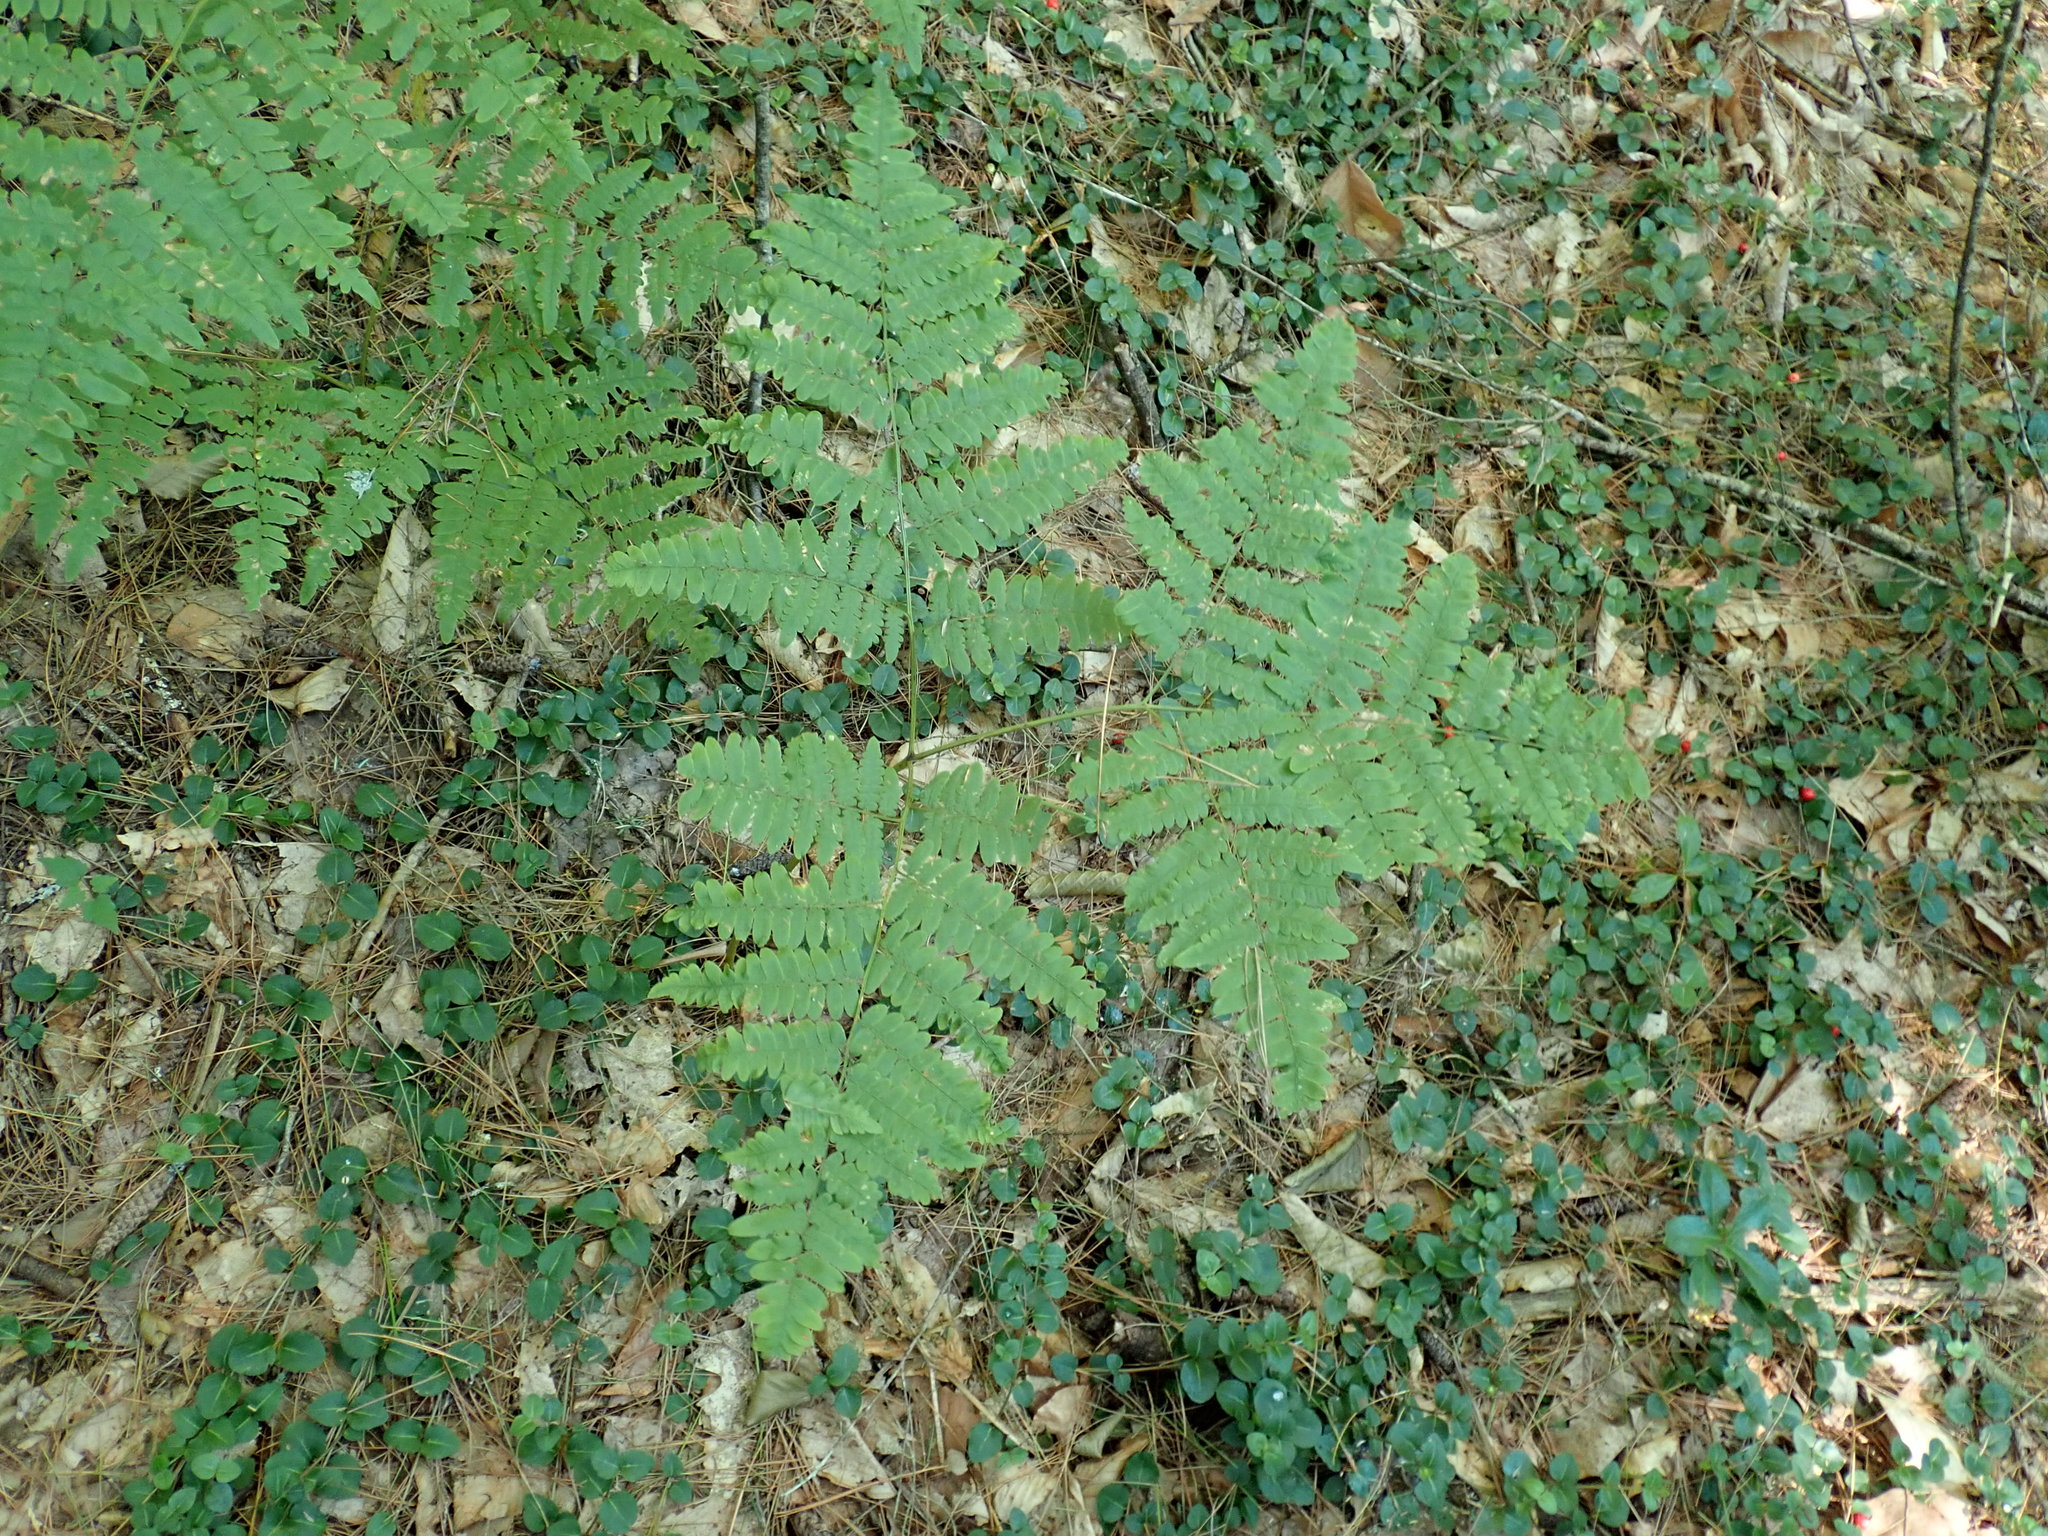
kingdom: Plantae
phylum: Tracheophyta
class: Polypodiopsida
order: Polypodiales
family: Dennstaedtiaceae
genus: Pteridium
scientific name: Pteridium aquilinum
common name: Bracken
